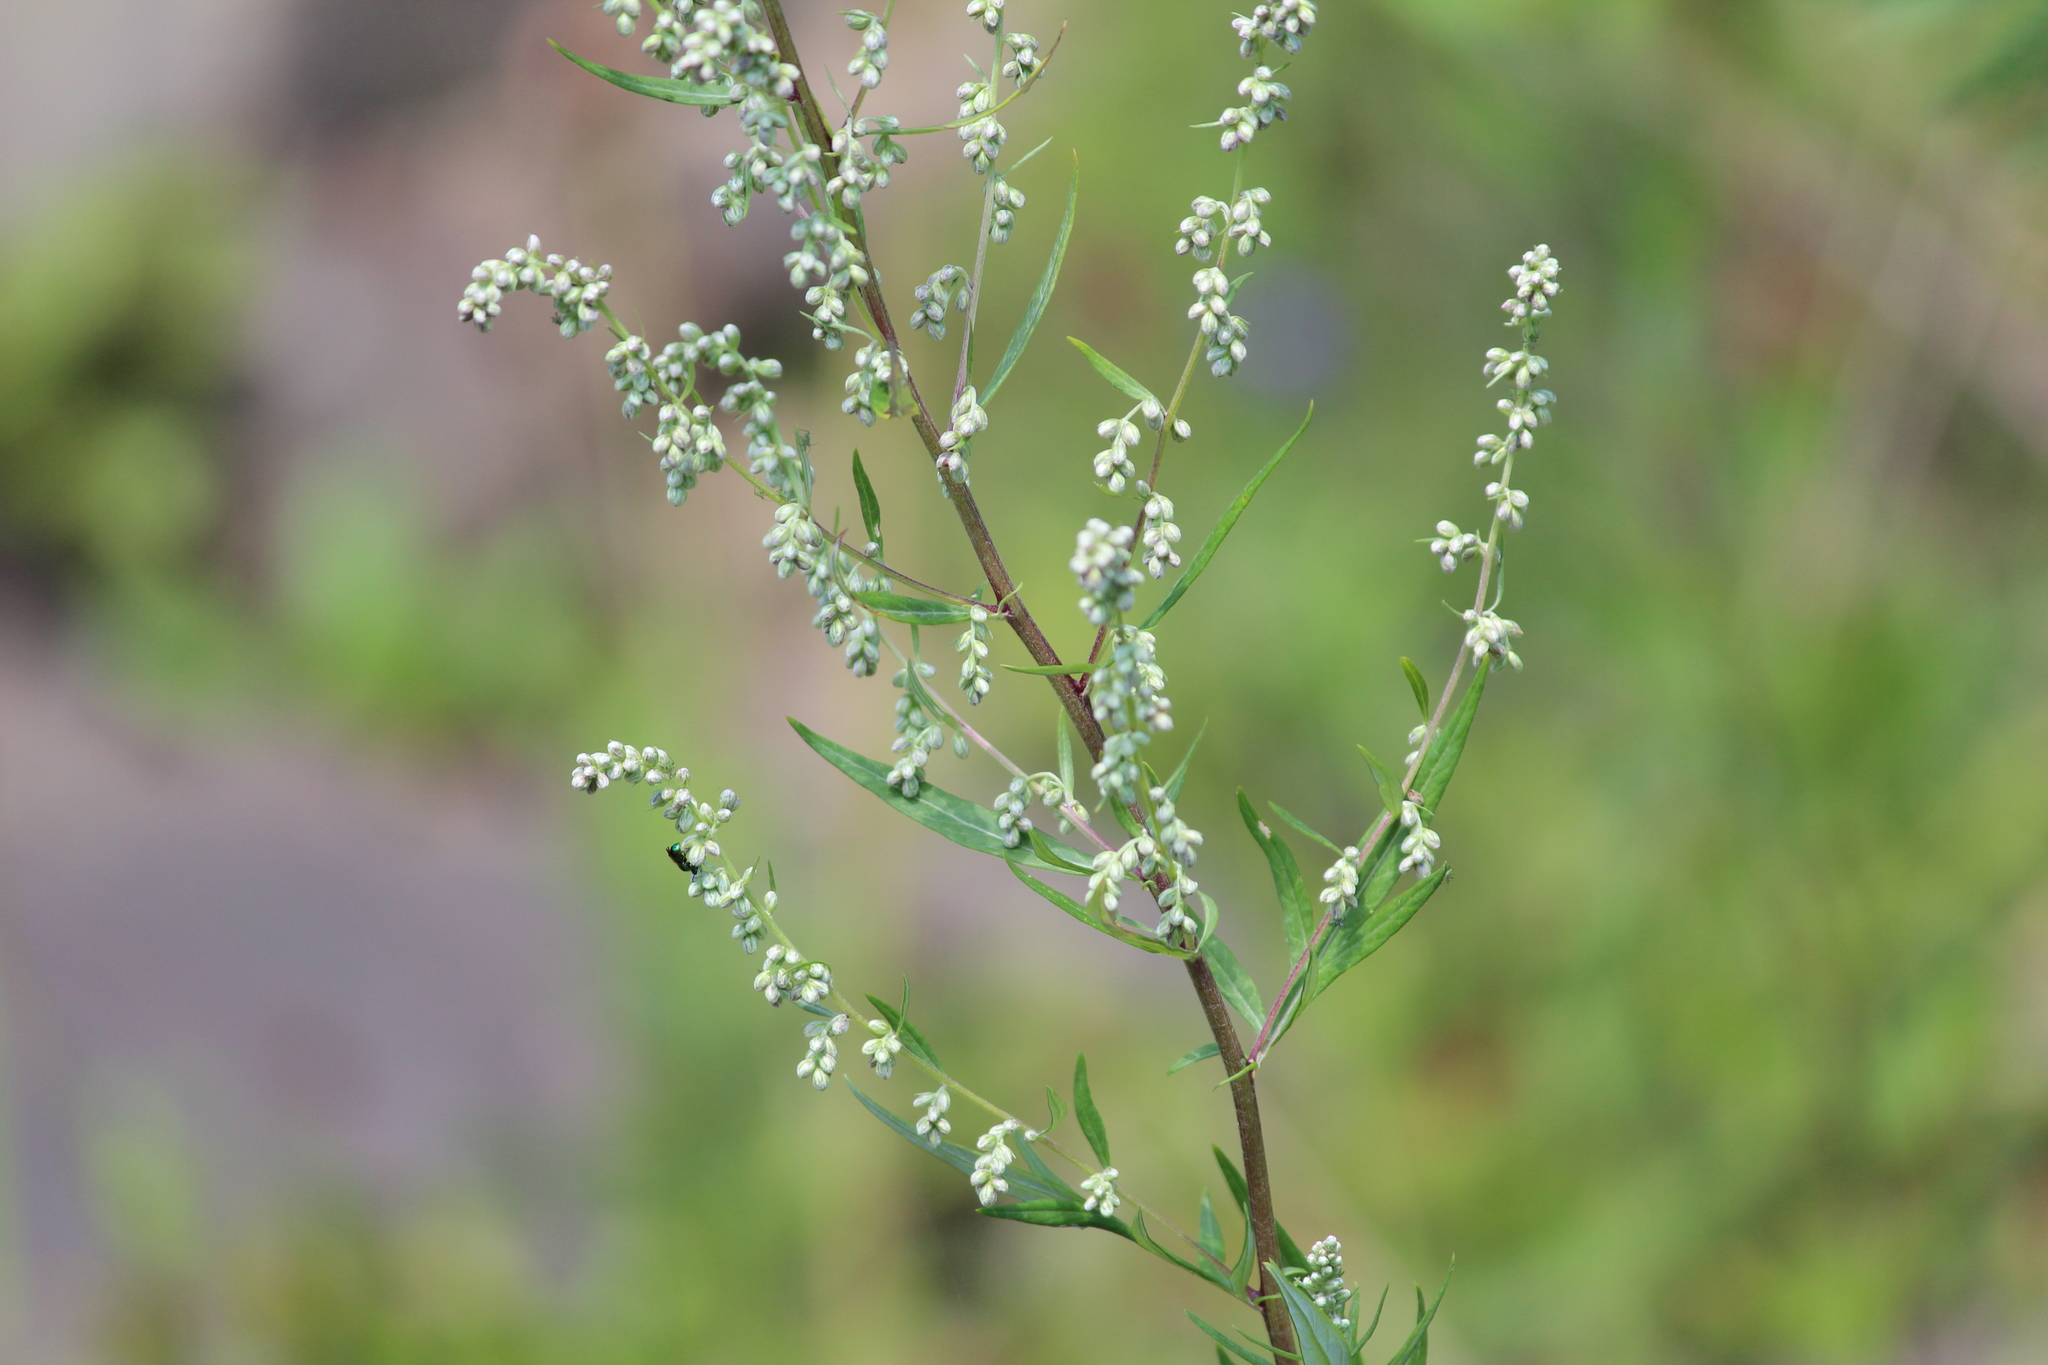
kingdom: Plantae
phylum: Tracheophyta
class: Magnoliopsida
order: Asterales
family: Asteraceae
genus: Artemisia
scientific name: Artemisia vulgaris
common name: Mugwort
